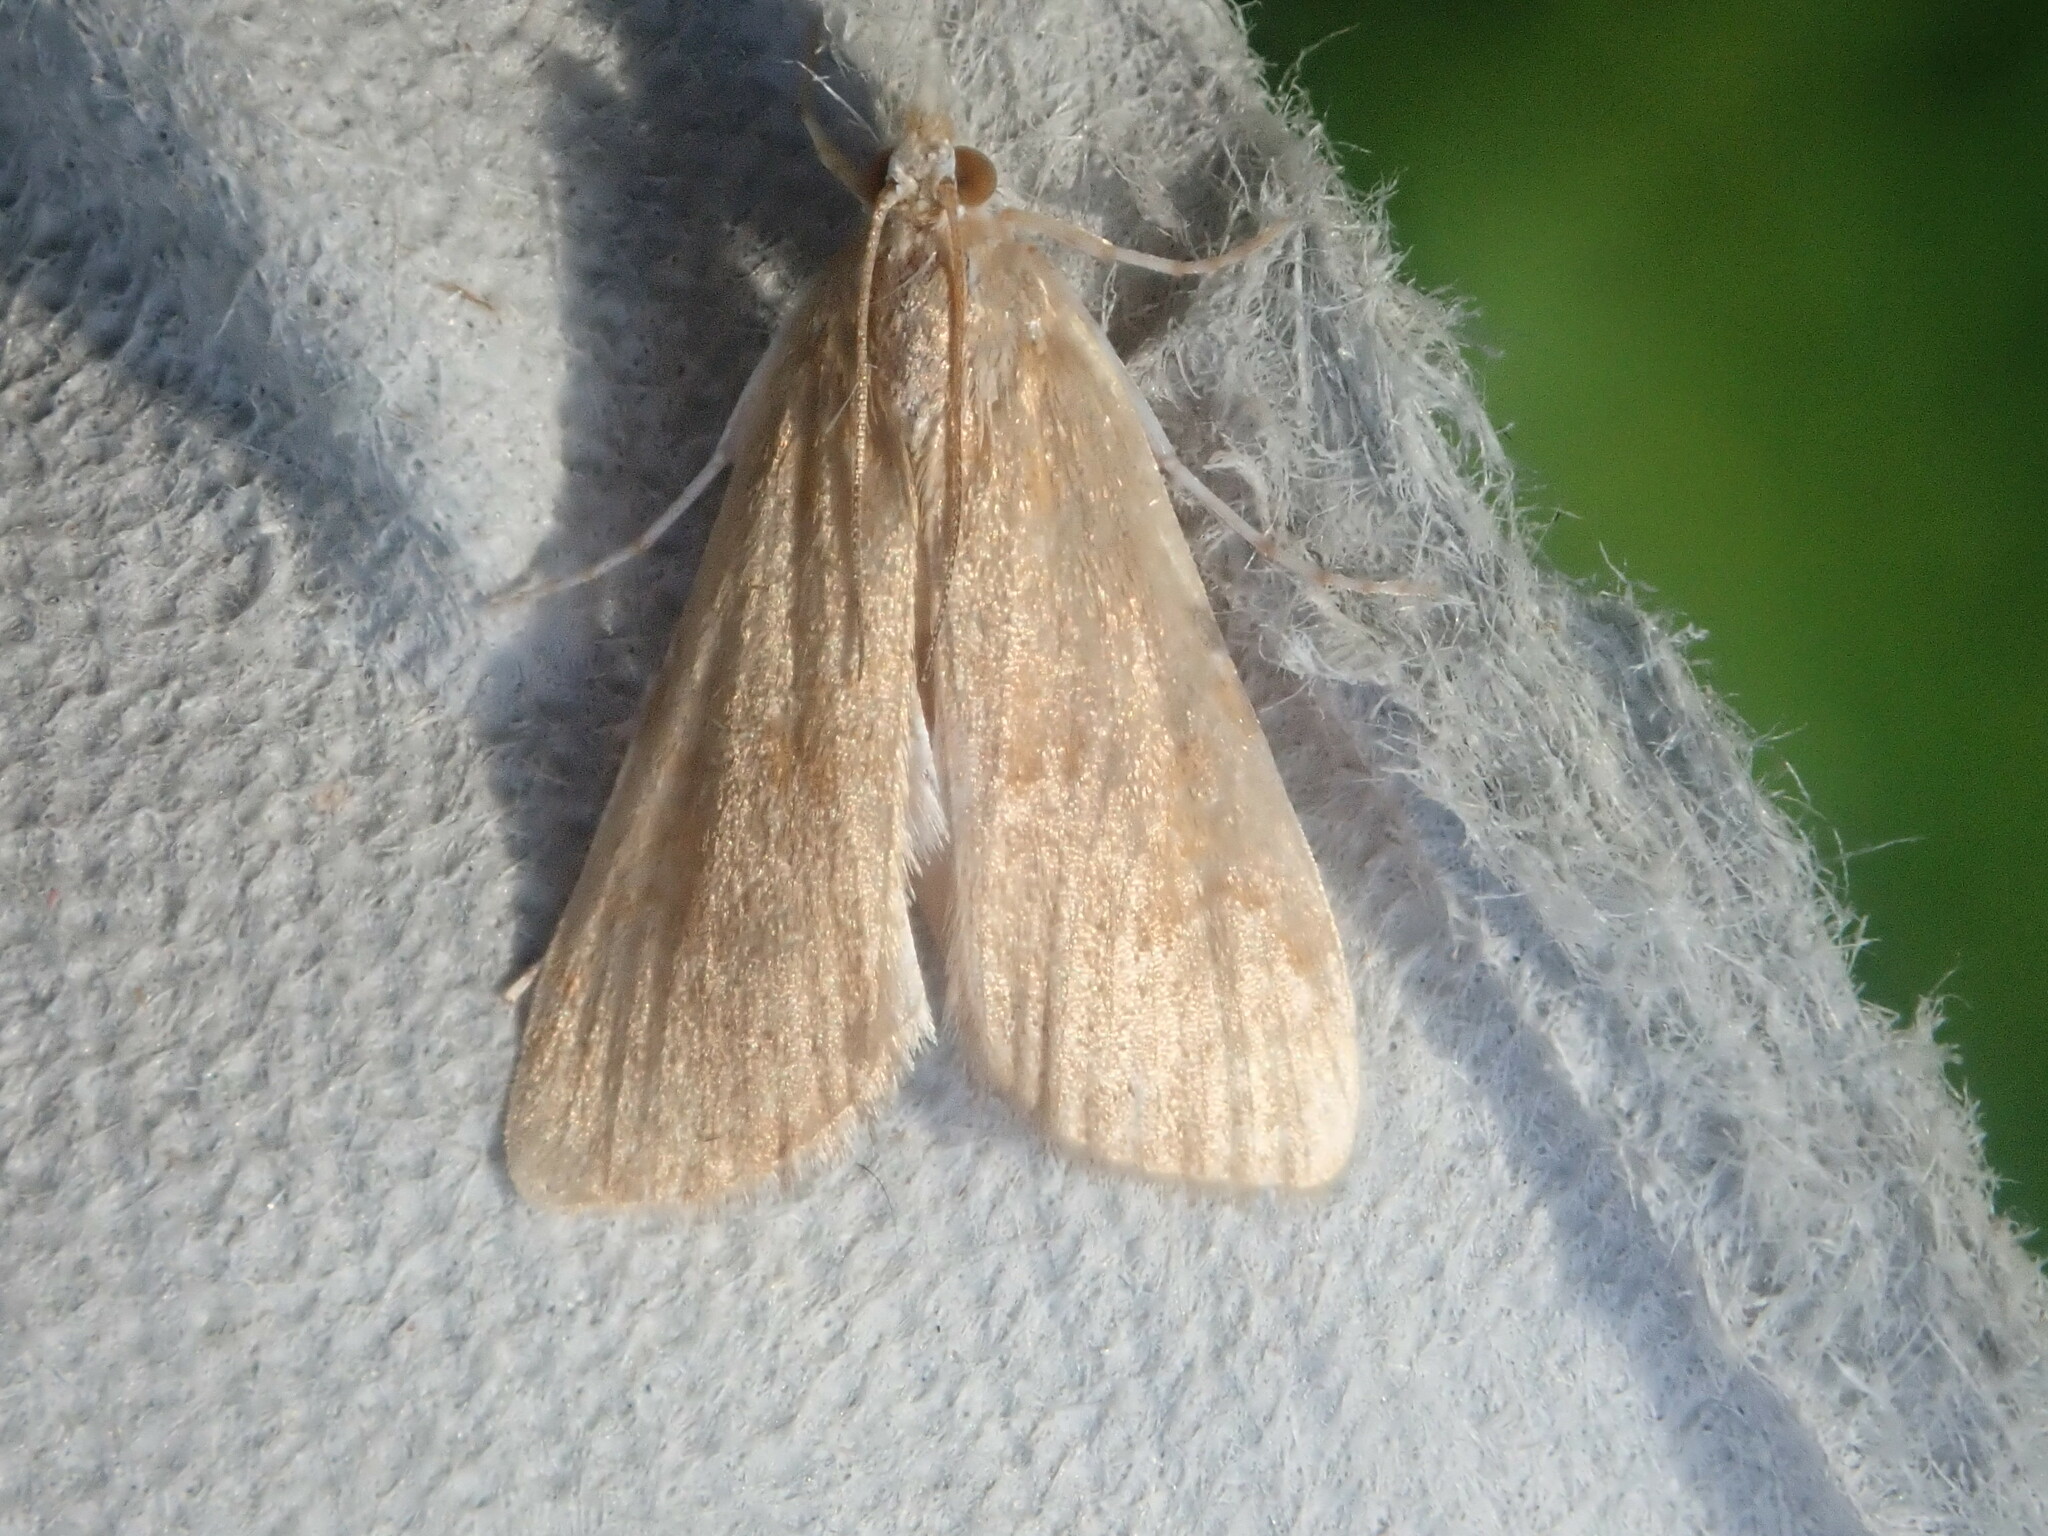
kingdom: Animalia
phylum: Arthropoda
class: Insecta
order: Lepidoptera
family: Crambidae
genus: Elophila
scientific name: Elophila gyralis
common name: Waterlily borer moth
